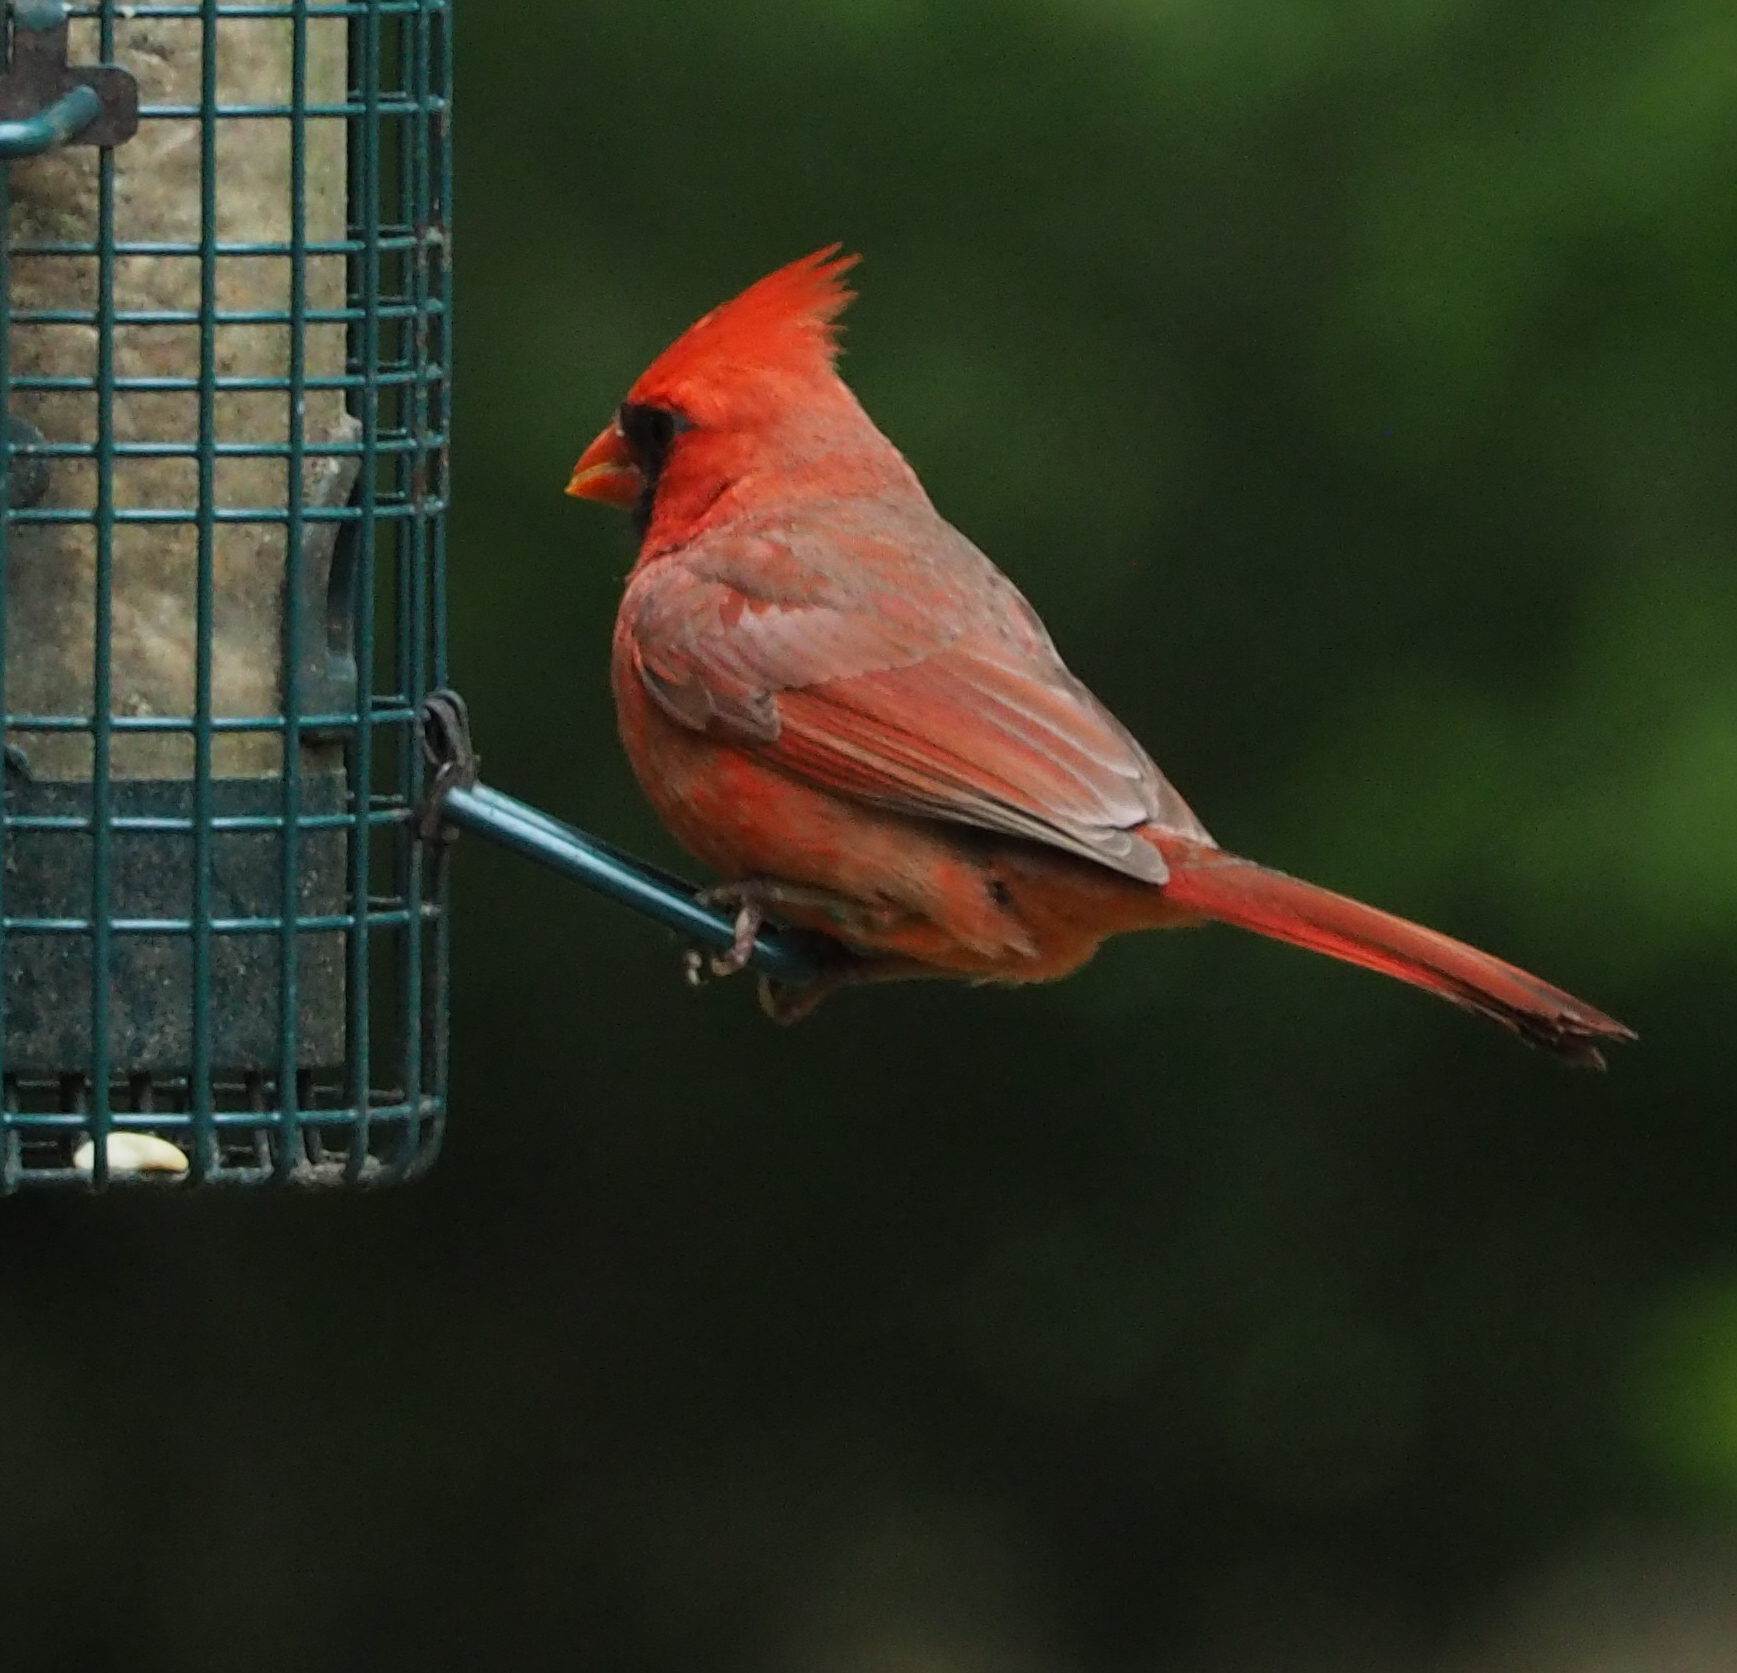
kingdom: Animalia
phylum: Chordata
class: Aves
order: Passeriformes
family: Cardinalidae
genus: Cardinalis
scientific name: Cardinalis cardinalis
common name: Northern cardinal
